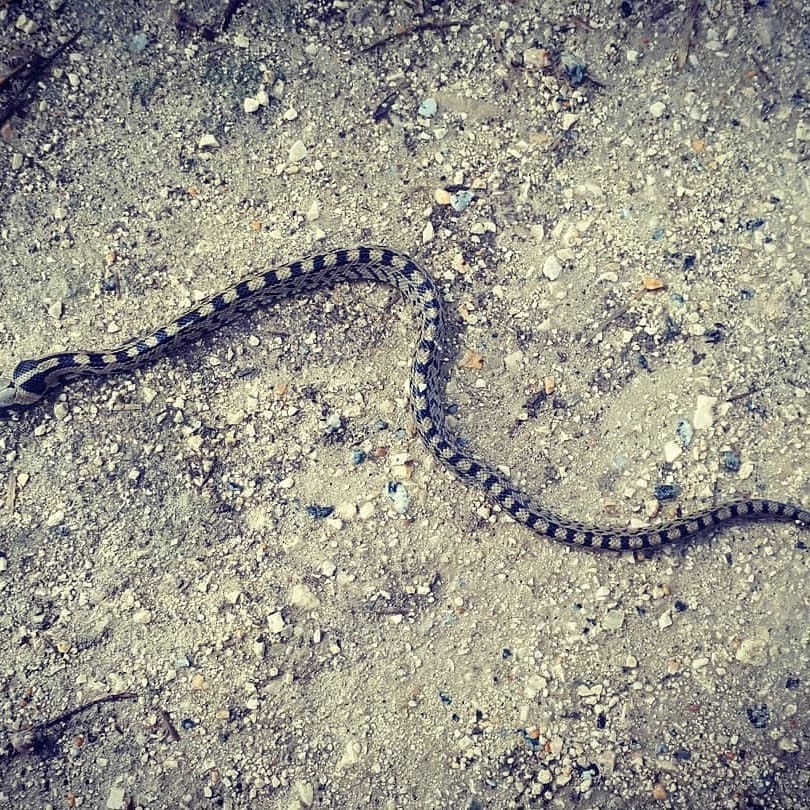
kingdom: Animalia
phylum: Chordata
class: Squamata
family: Colubridae
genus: Zamenis
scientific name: Zamenis scalaris
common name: Ladder snakes
